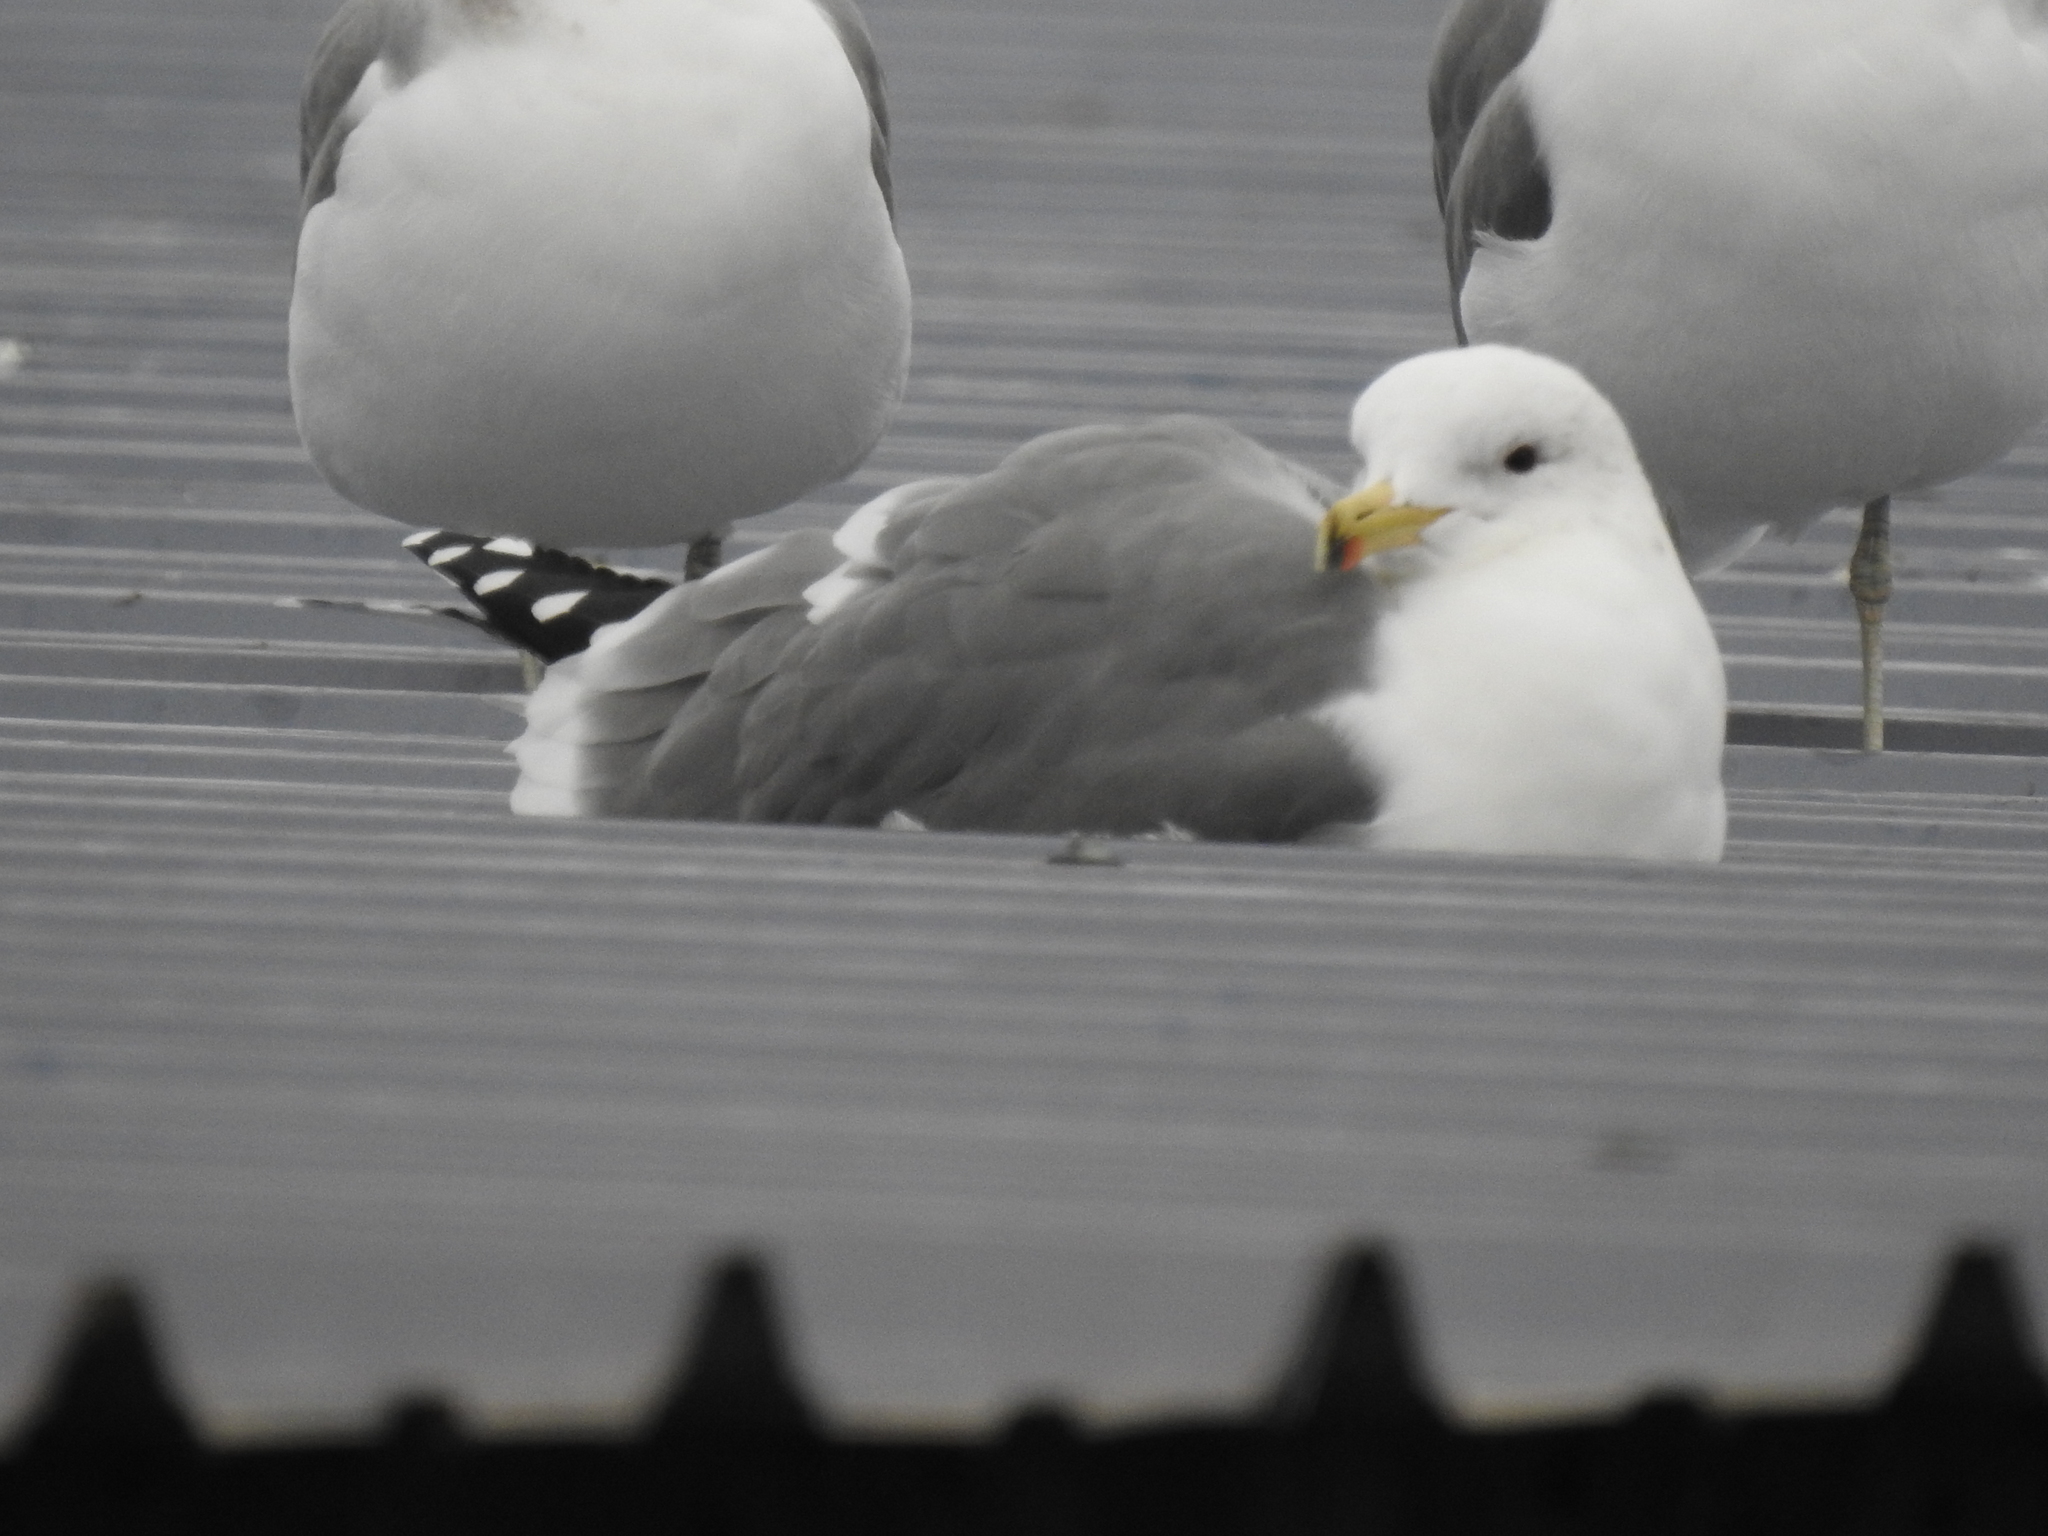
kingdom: Animalia
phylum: Chordata
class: Aves
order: Charadriiformes
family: Laridae
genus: Larus
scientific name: Larus californicus
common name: California gull
